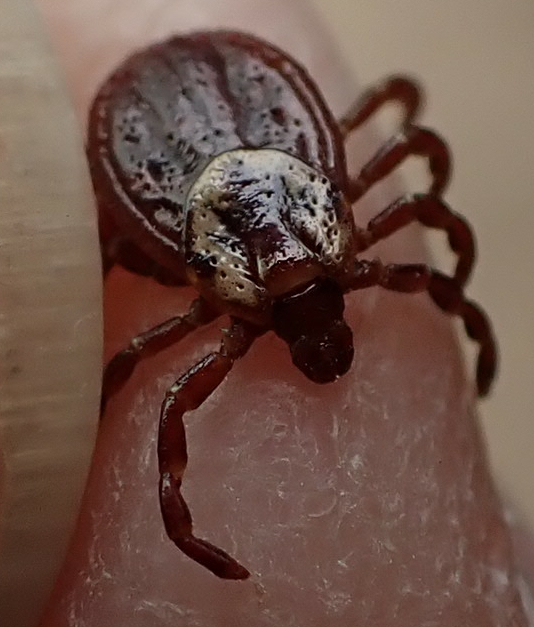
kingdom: Animalia
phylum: Arthropoda
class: Arachnida
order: Ixodida
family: Ixodidae
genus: Dermacentor
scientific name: Dermacentor variabilis
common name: American dog tick
